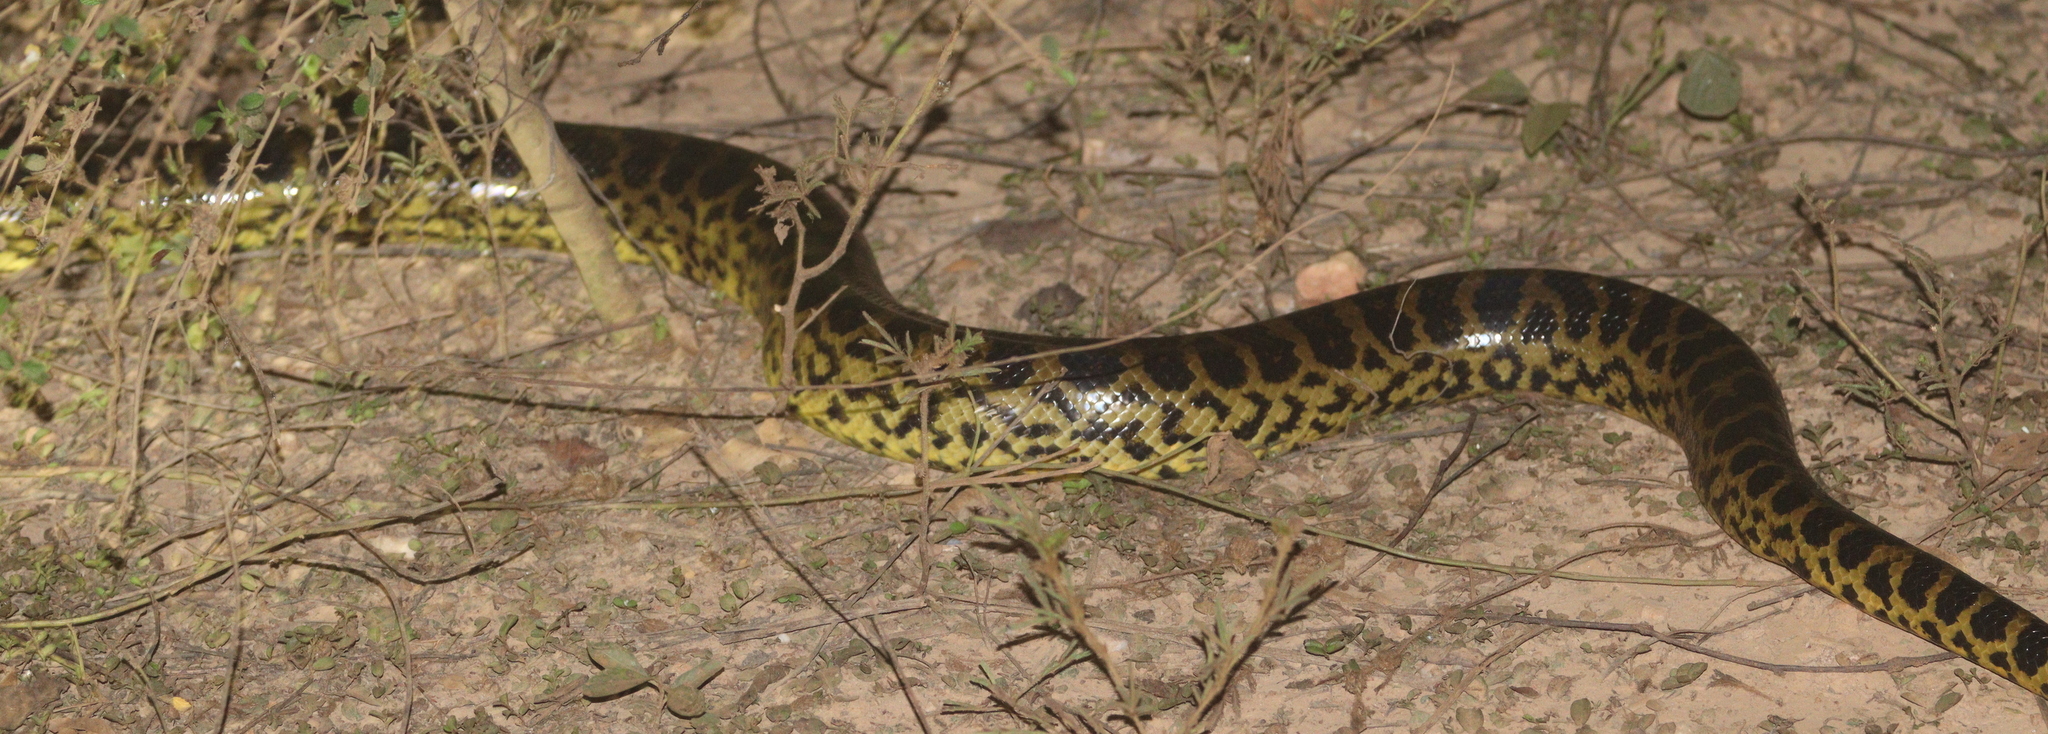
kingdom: Animalia
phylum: Chordata
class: Squamata
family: Boidae
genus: Eunectes
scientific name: Eunectes notaeus
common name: Yellow anaconda
